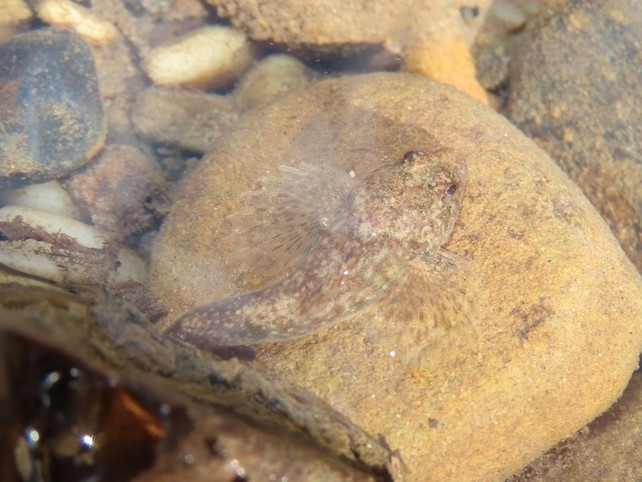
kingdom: Animalia
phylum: Chordata
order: Scorpaeniformes
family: Cottidae
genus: Cottus
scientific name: Cottus bairdii
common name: Mottled sculpin
